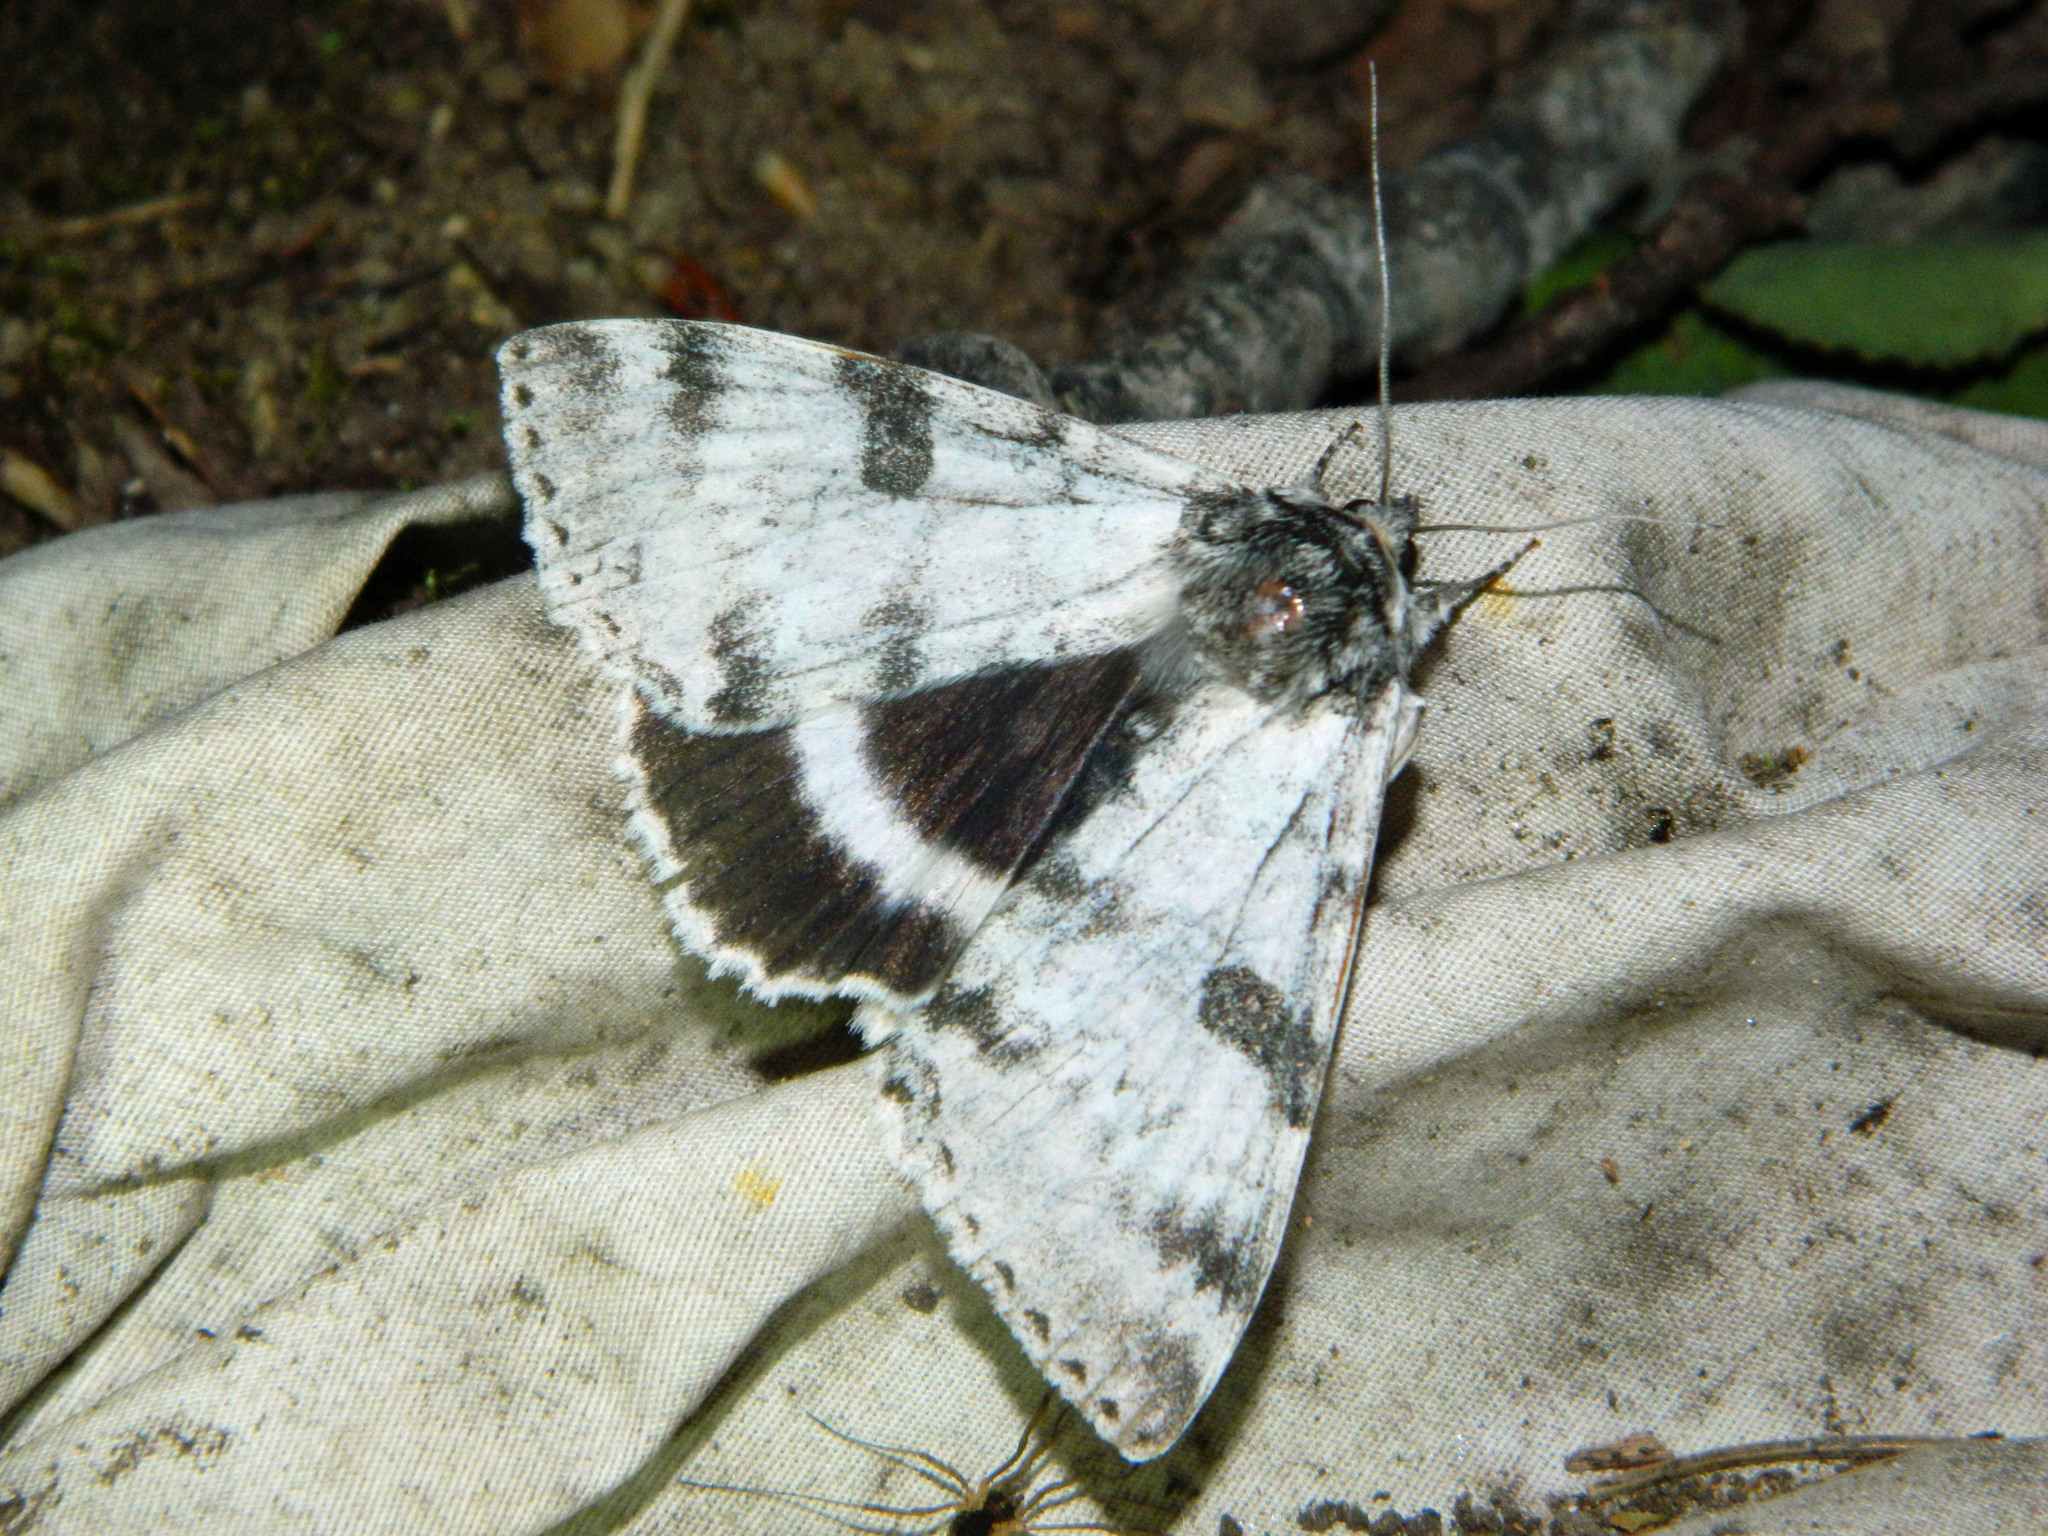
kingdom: Animalia
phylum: Arthropoda
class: Insecta
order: Lepidoptera
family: Erebidae
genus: Catocala
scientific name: Catocala relicta
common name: White underwing
